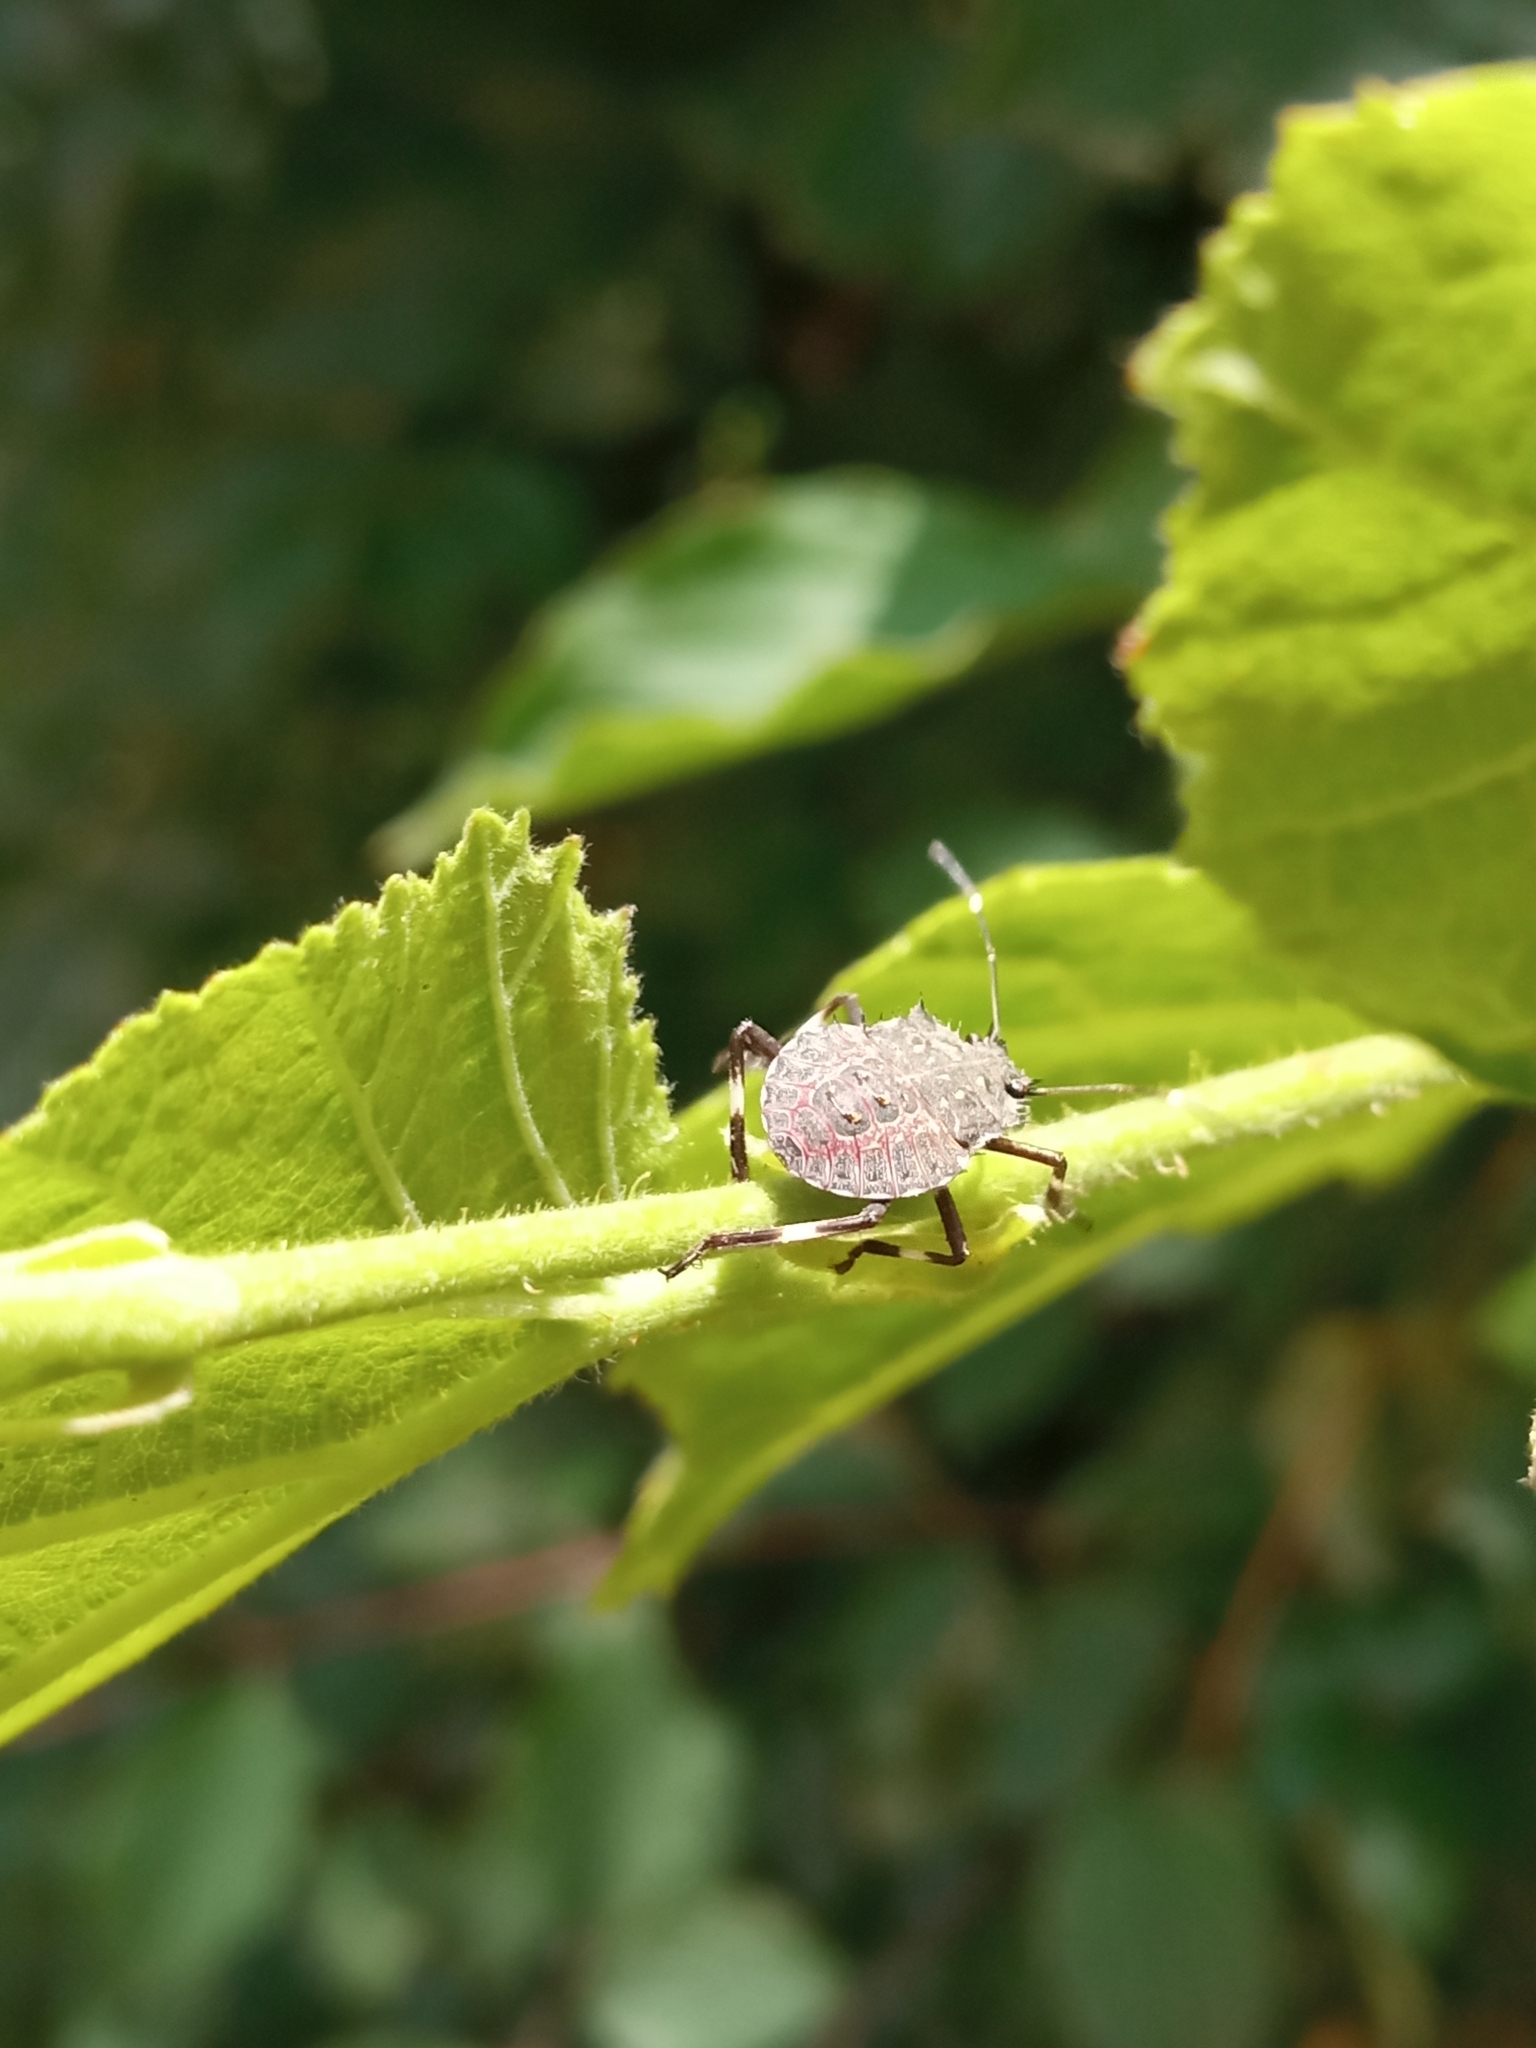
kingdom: Animalia
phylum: Arthropoda
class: Insecta
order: Hemiptera
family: Pentatomidae
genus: Halyomorpha
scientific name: Halyomorpha halys
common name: Brown marmorated stink bug
